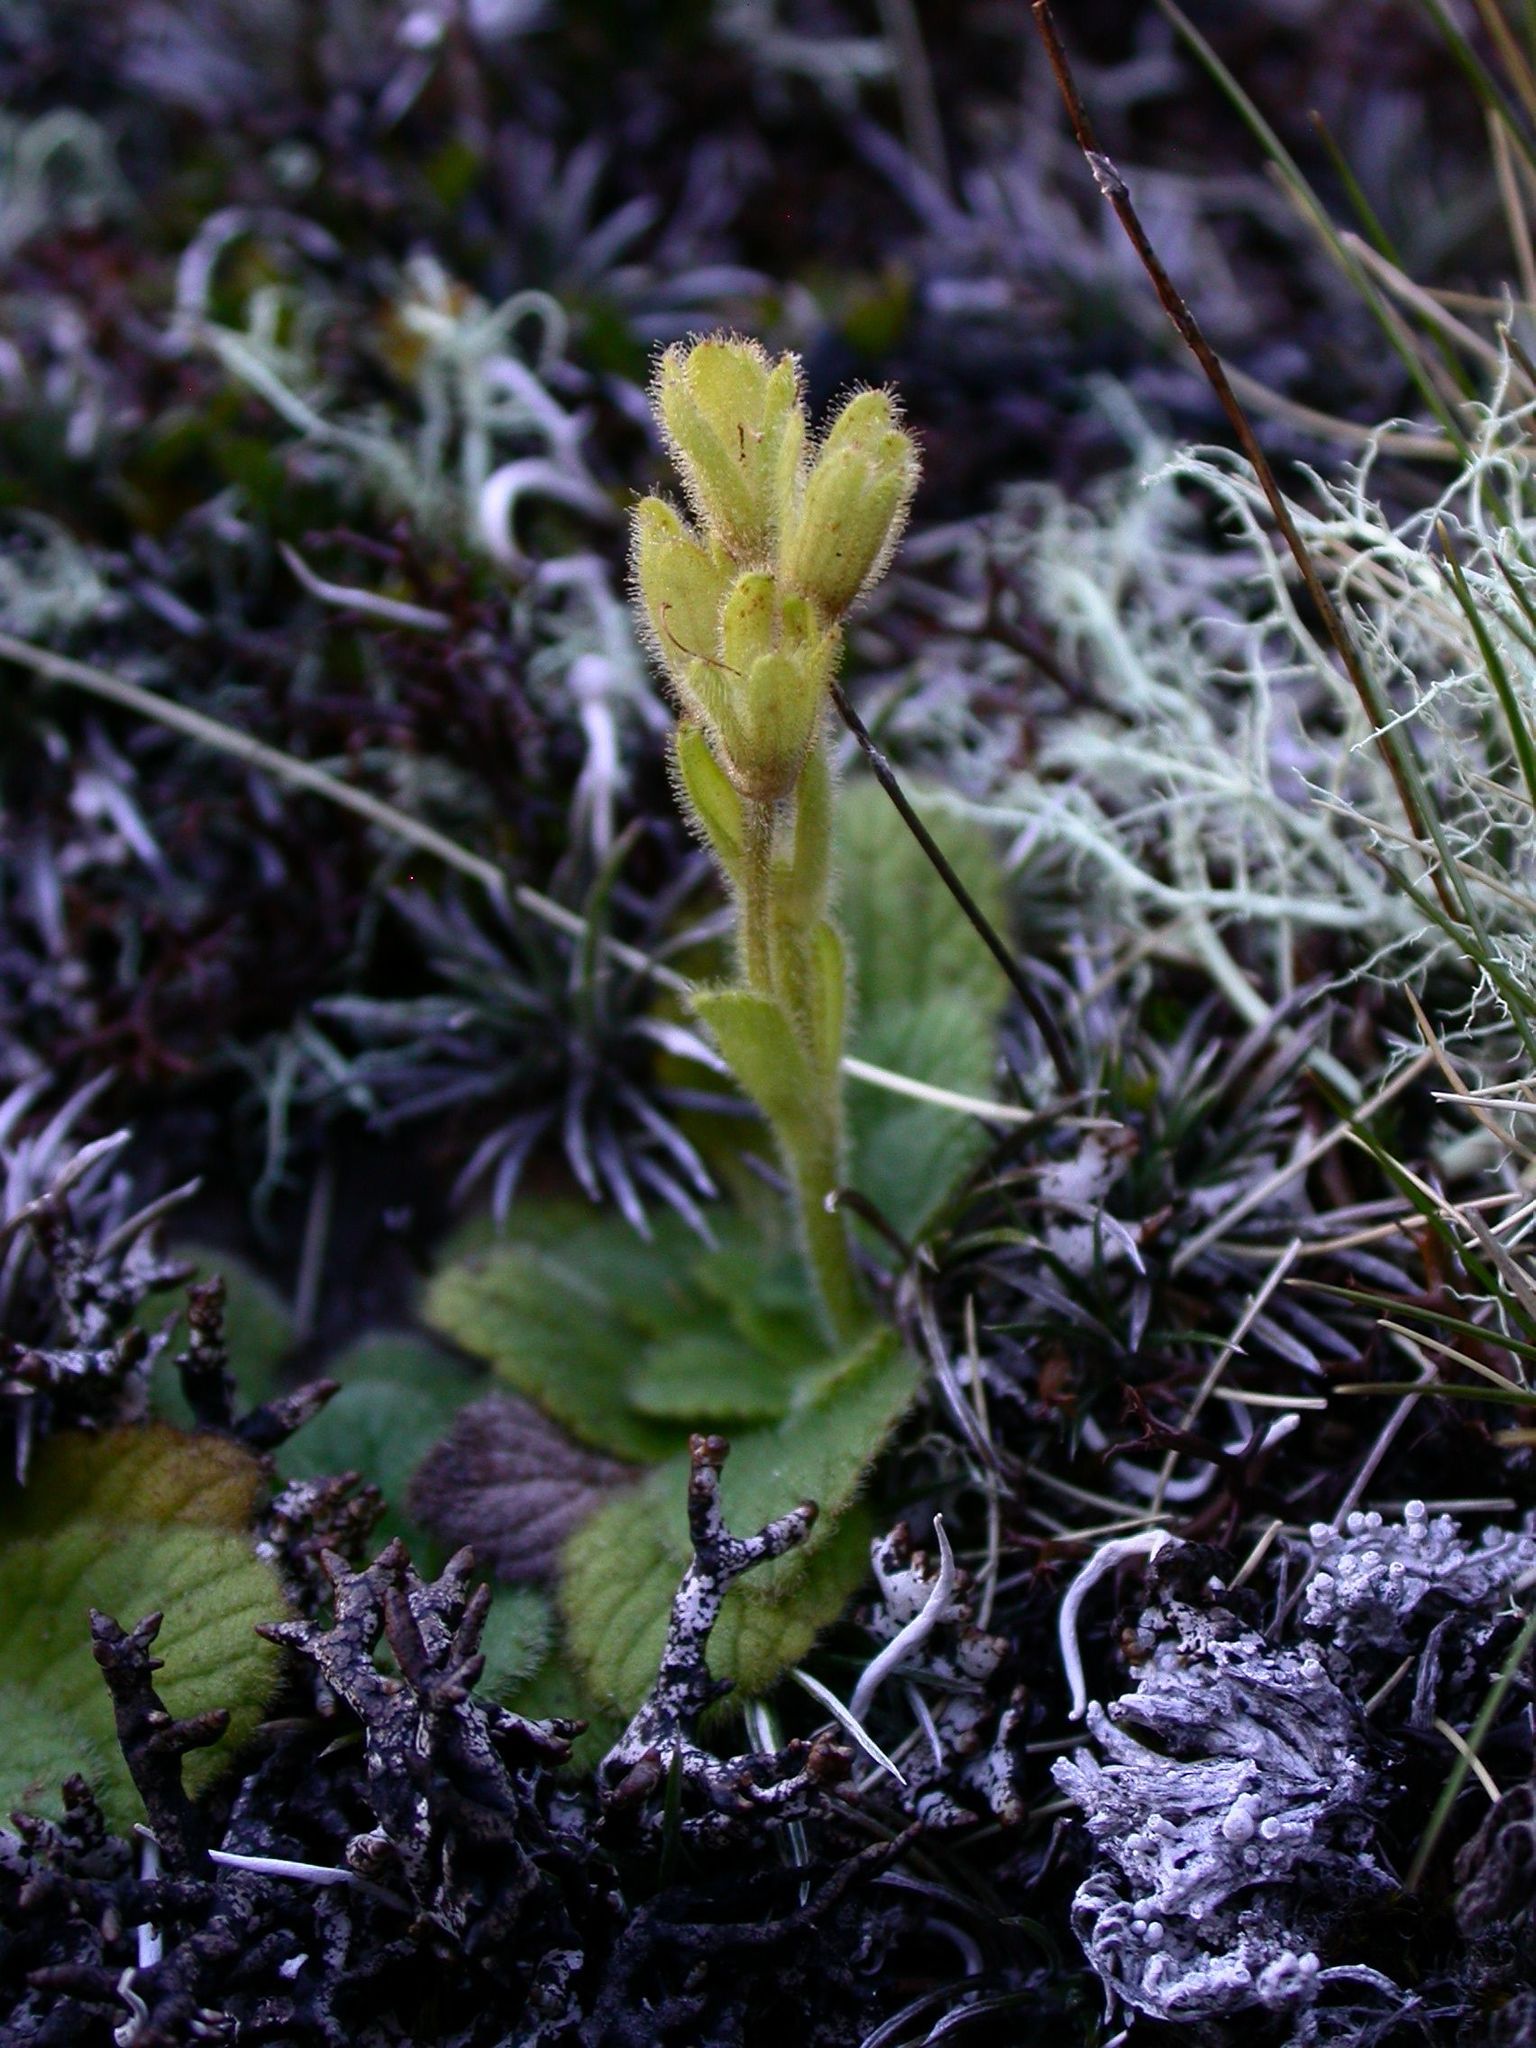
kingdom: Plantae
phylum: Tracheophyta
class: Magnoliopsida
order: Lamiales
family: Plantaginaceae
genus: Ourisia
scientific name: Ourisia simpsonii
